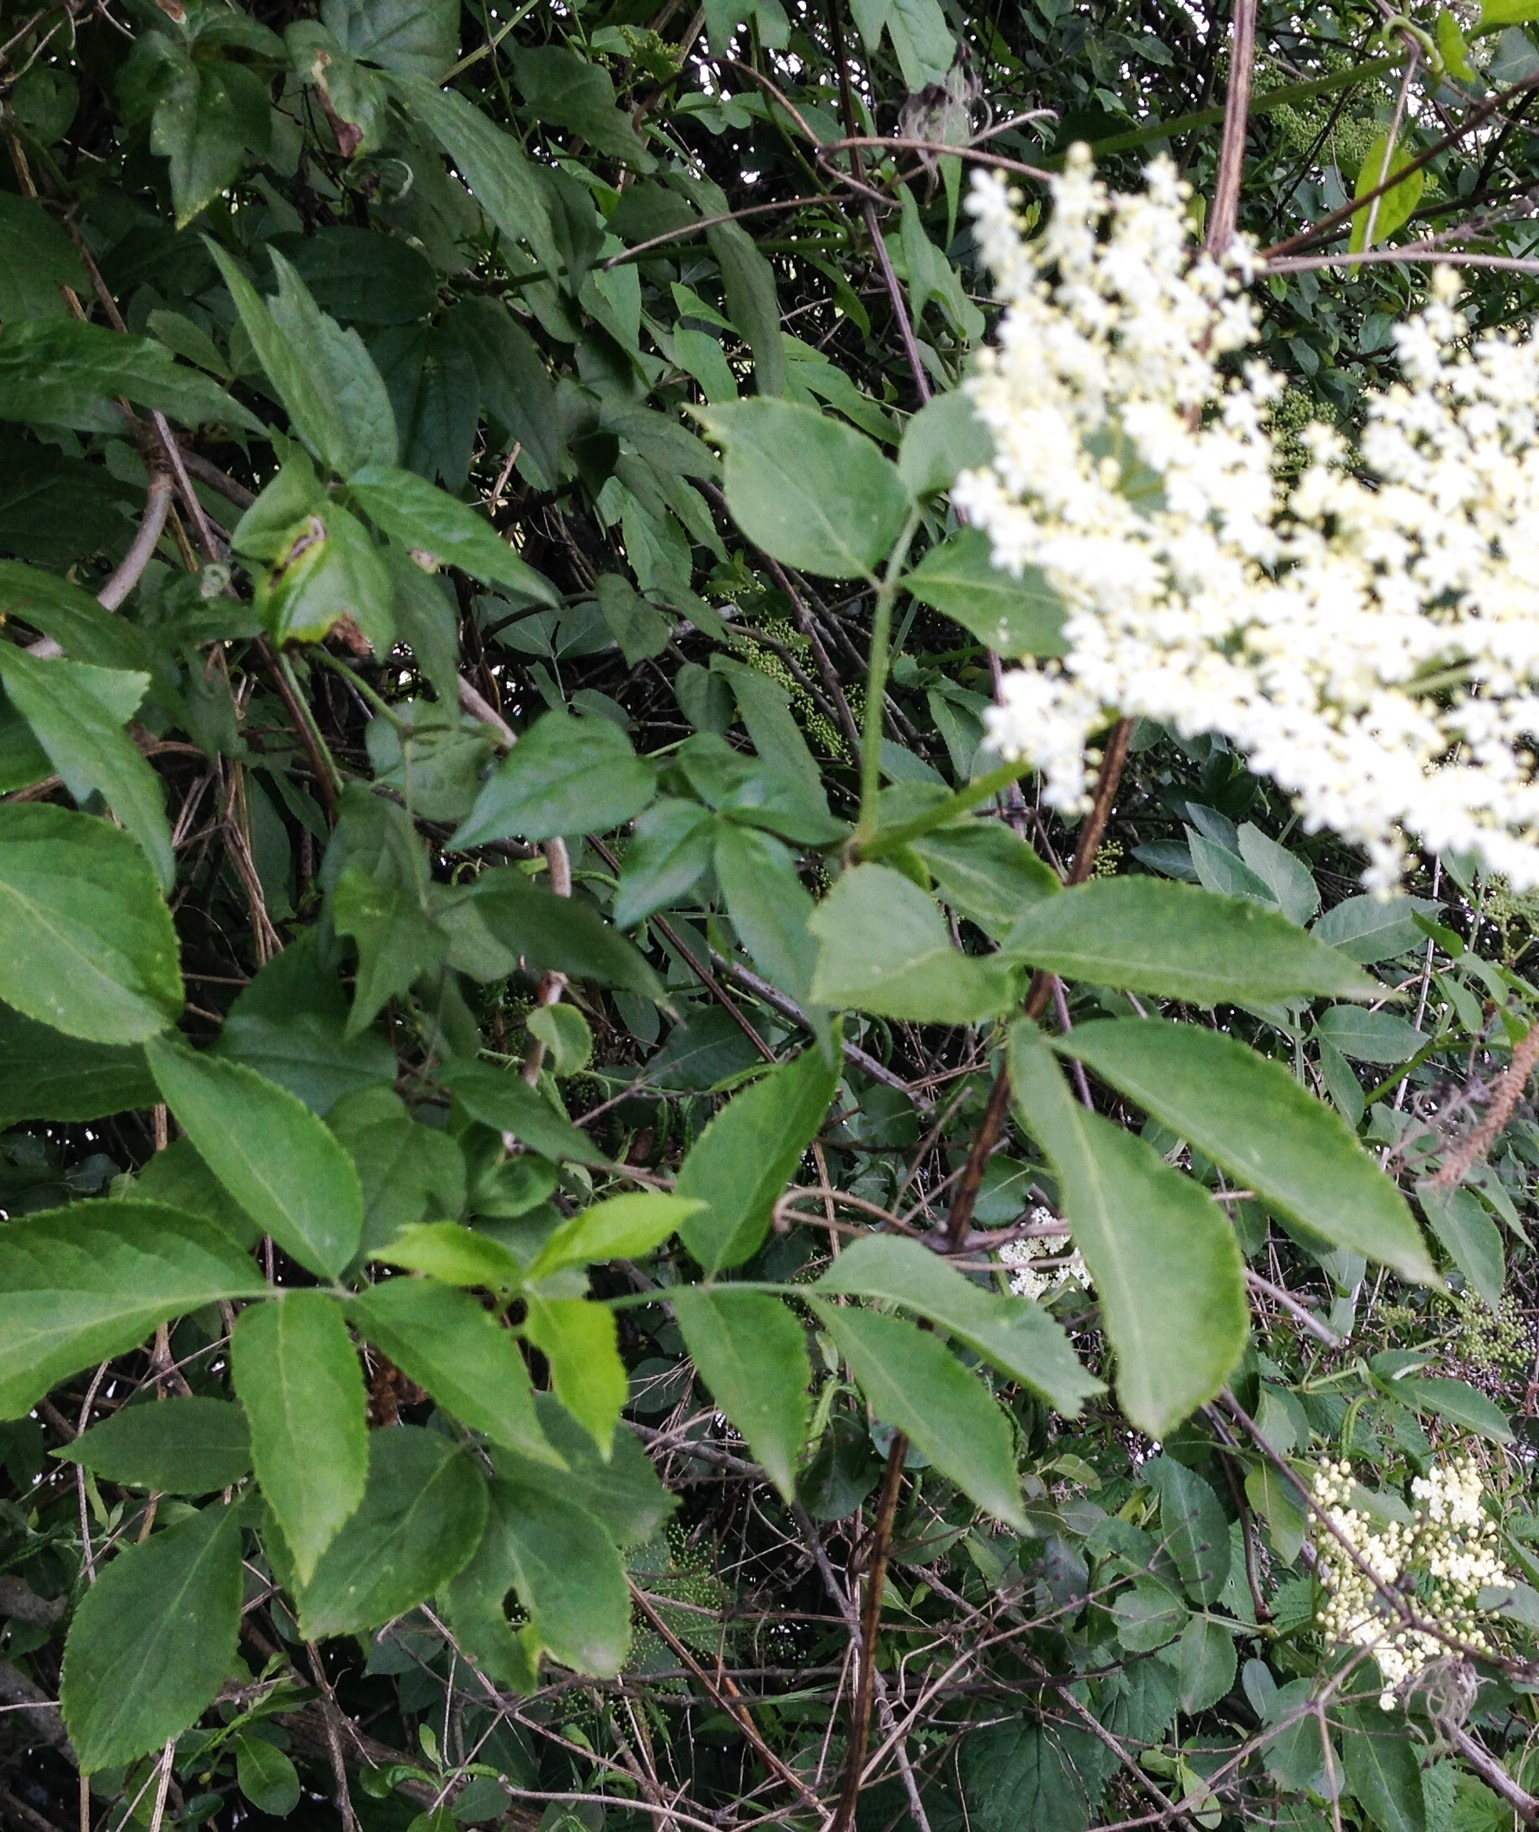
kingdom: Plantae
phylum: Tracheophyta
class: Magnoliopsida
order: Dipsacales
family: Viburnaceae
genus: Sambucus
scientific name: Sambucus nigra
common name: Elder
